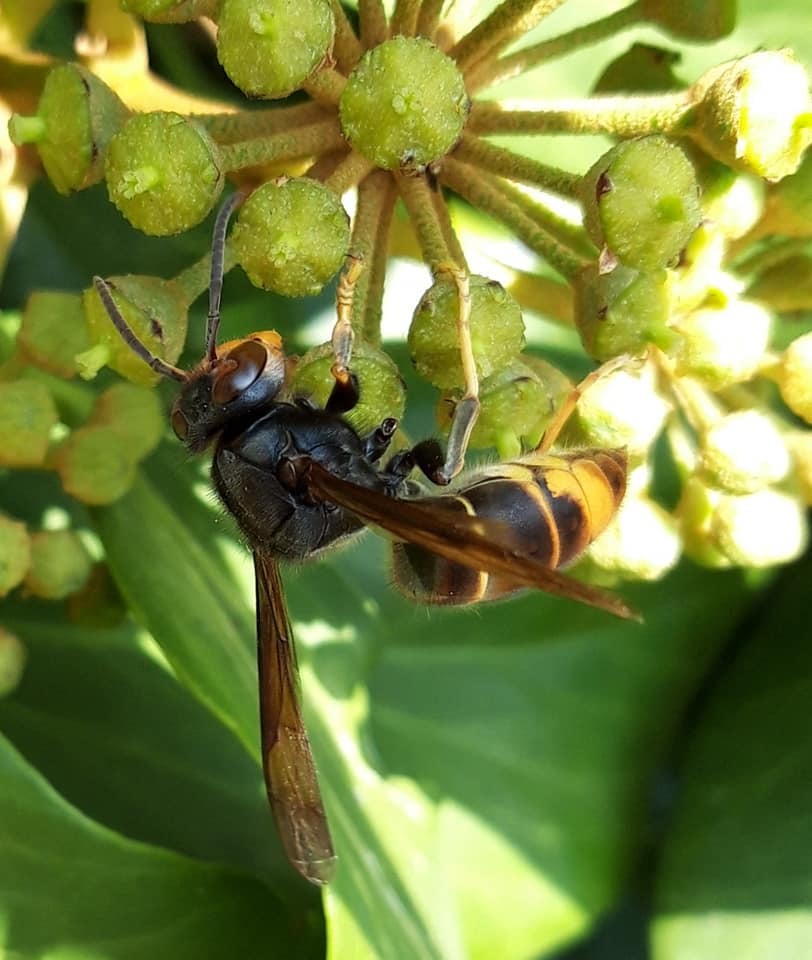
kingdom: Animalia
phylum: Arthropoda
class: Insecta
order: Hymenoptera
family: Vespidae
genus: Vespa
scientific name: Vespa velutina
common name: Asian hornet
